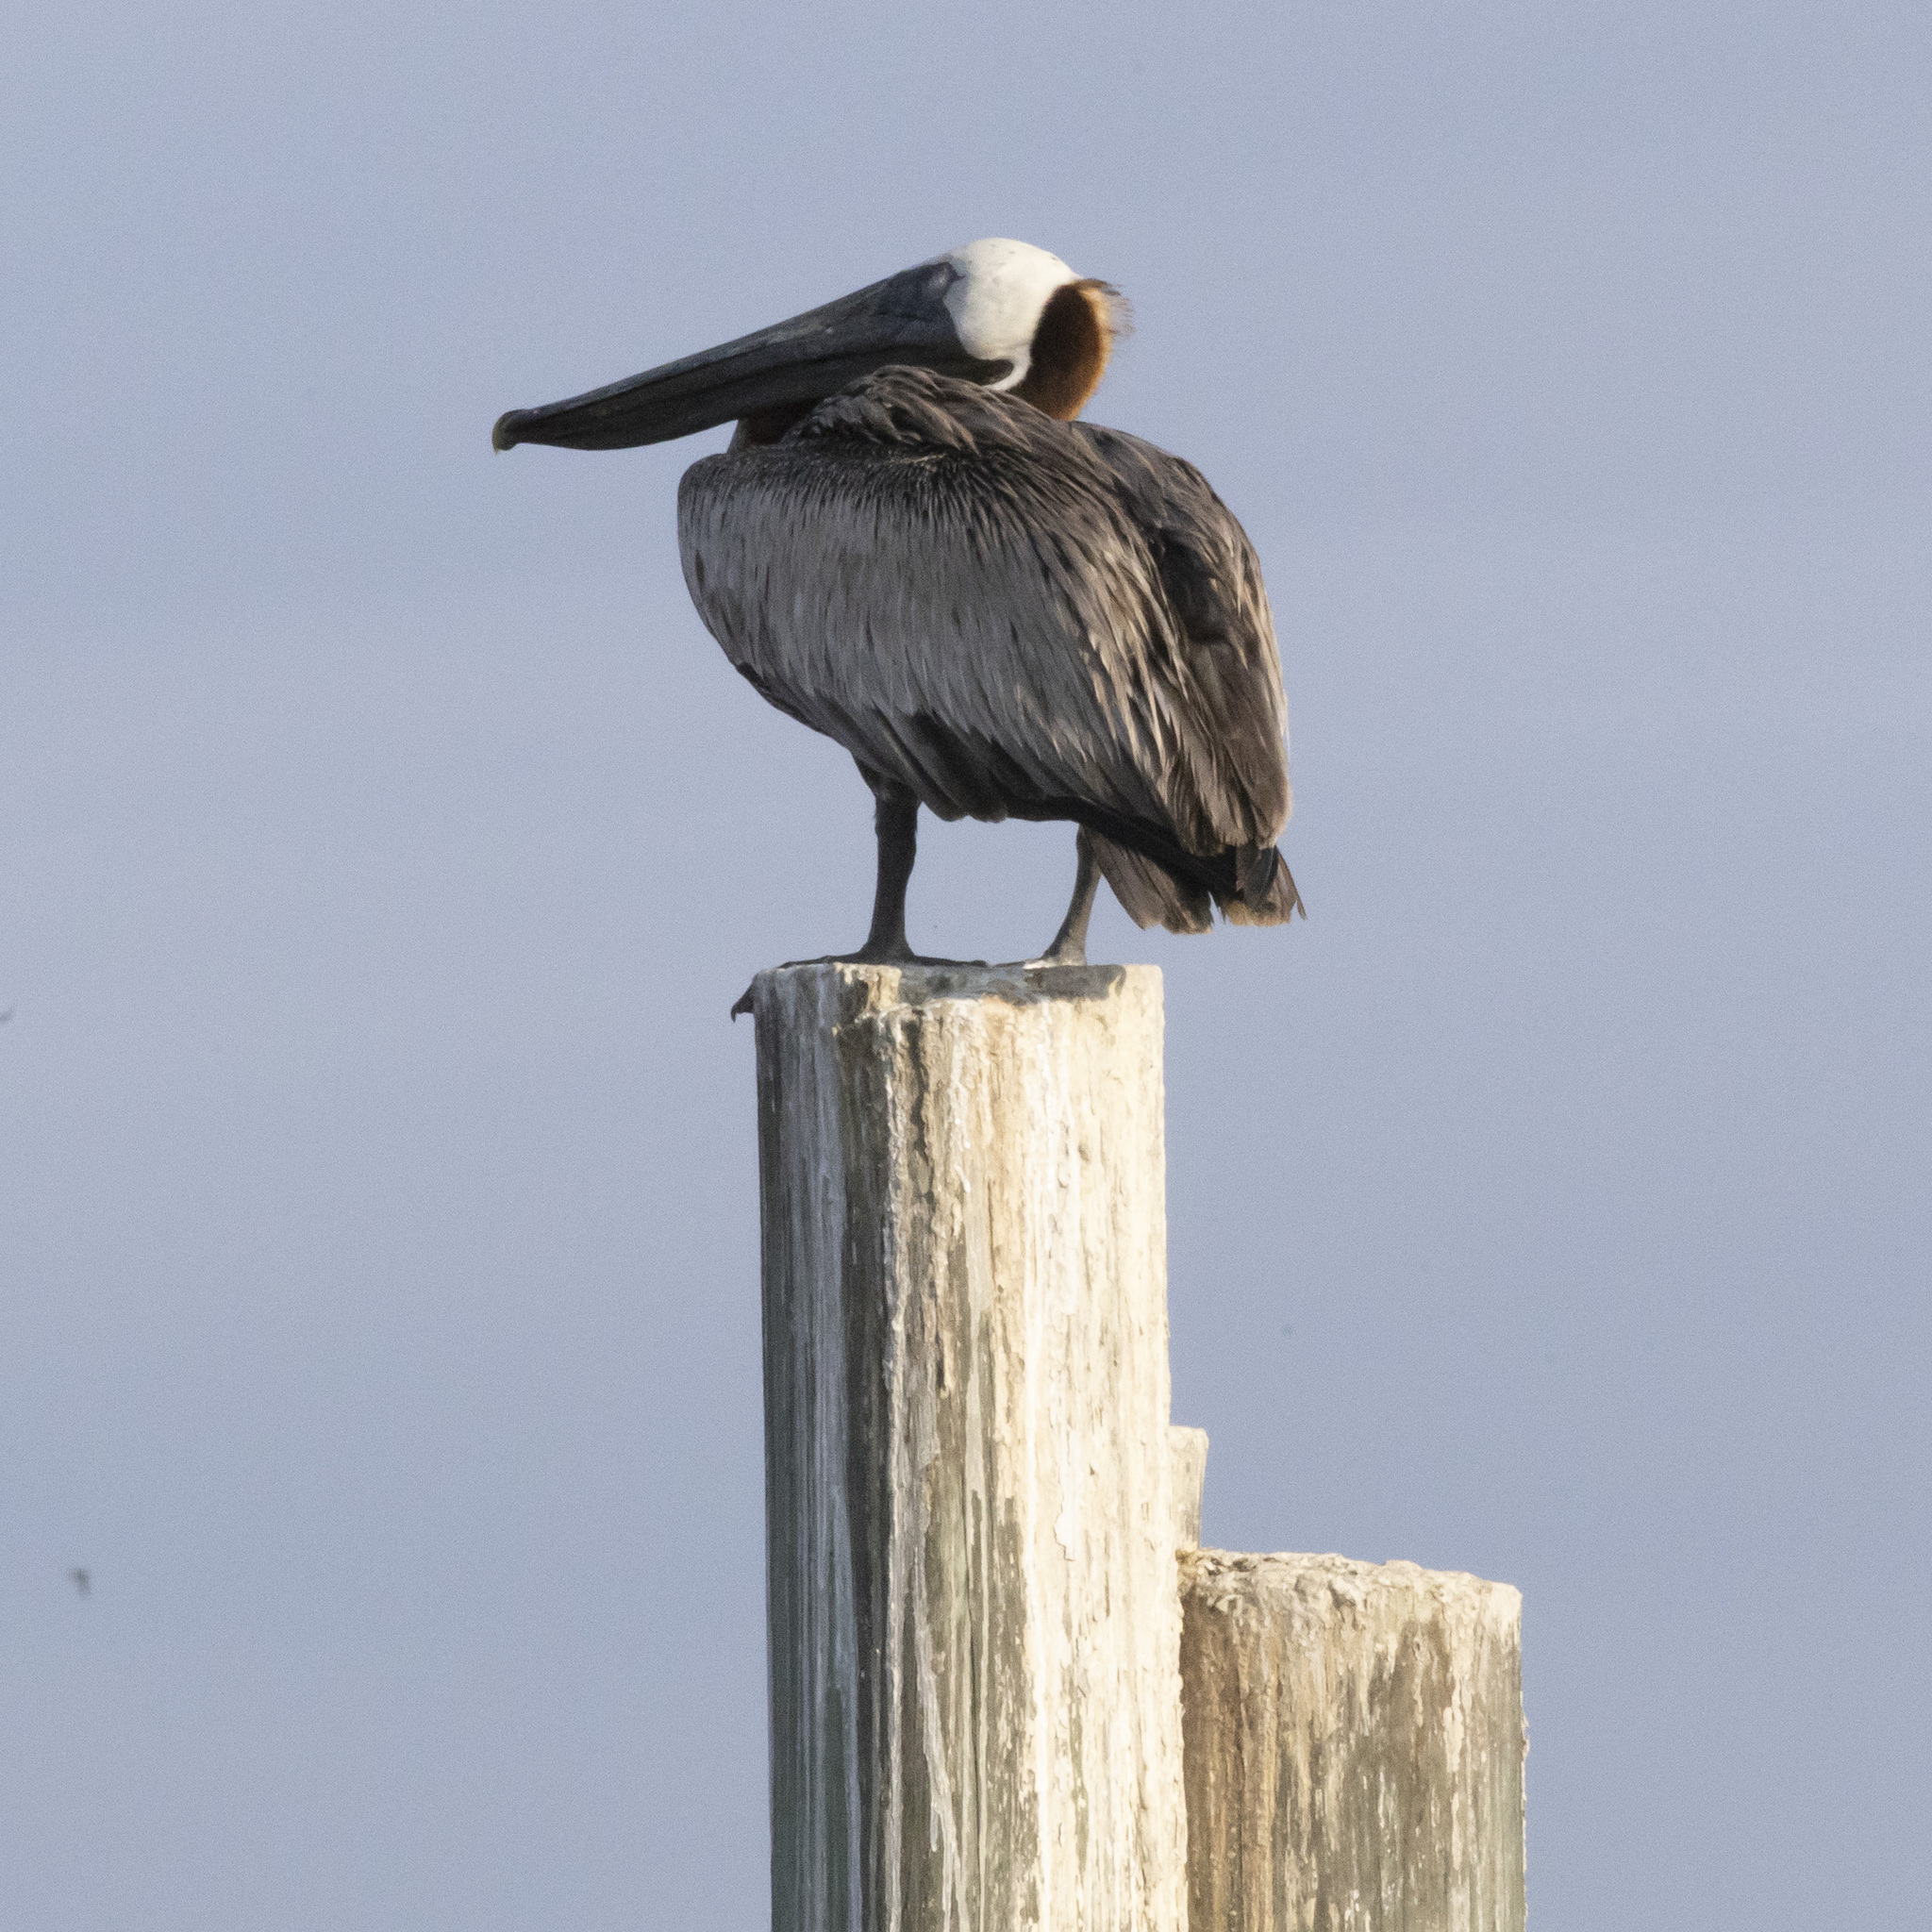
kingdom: Animalia
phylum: Chordata
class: Aves
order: Pelecaniformes
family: Pelecanidae
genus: Pelecanus
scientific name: Pelecanus occidentalis
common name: Brown pelican
